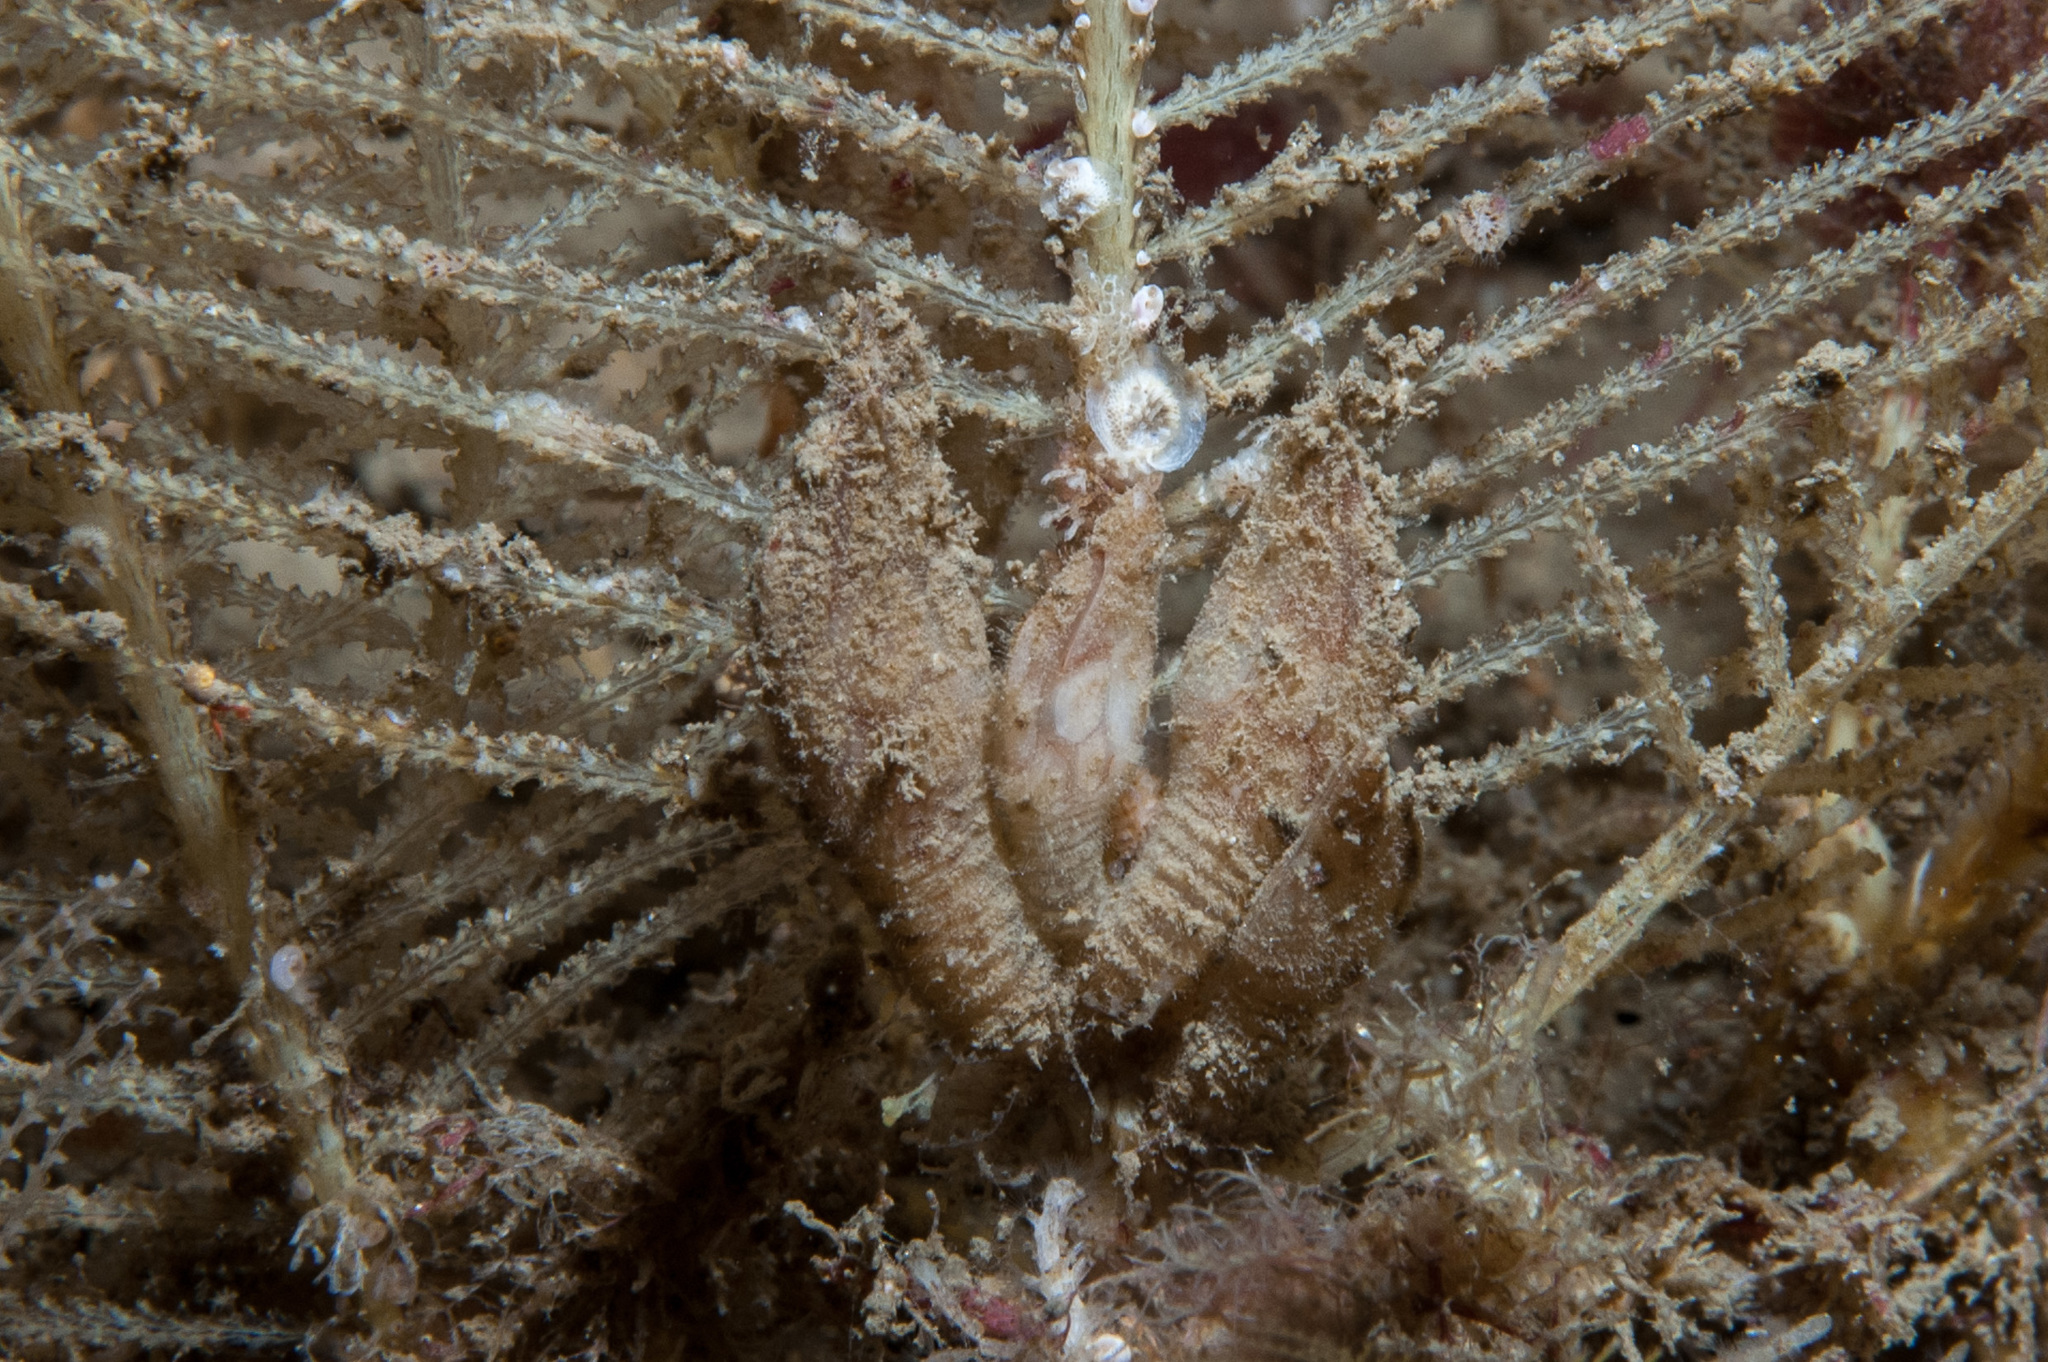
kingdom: Animalia
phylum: Arthropoda
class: Maxillopoda
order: Pedunculata
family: Scalpellidae
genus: Scalpellum
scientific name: Scalpellum scalpellum
